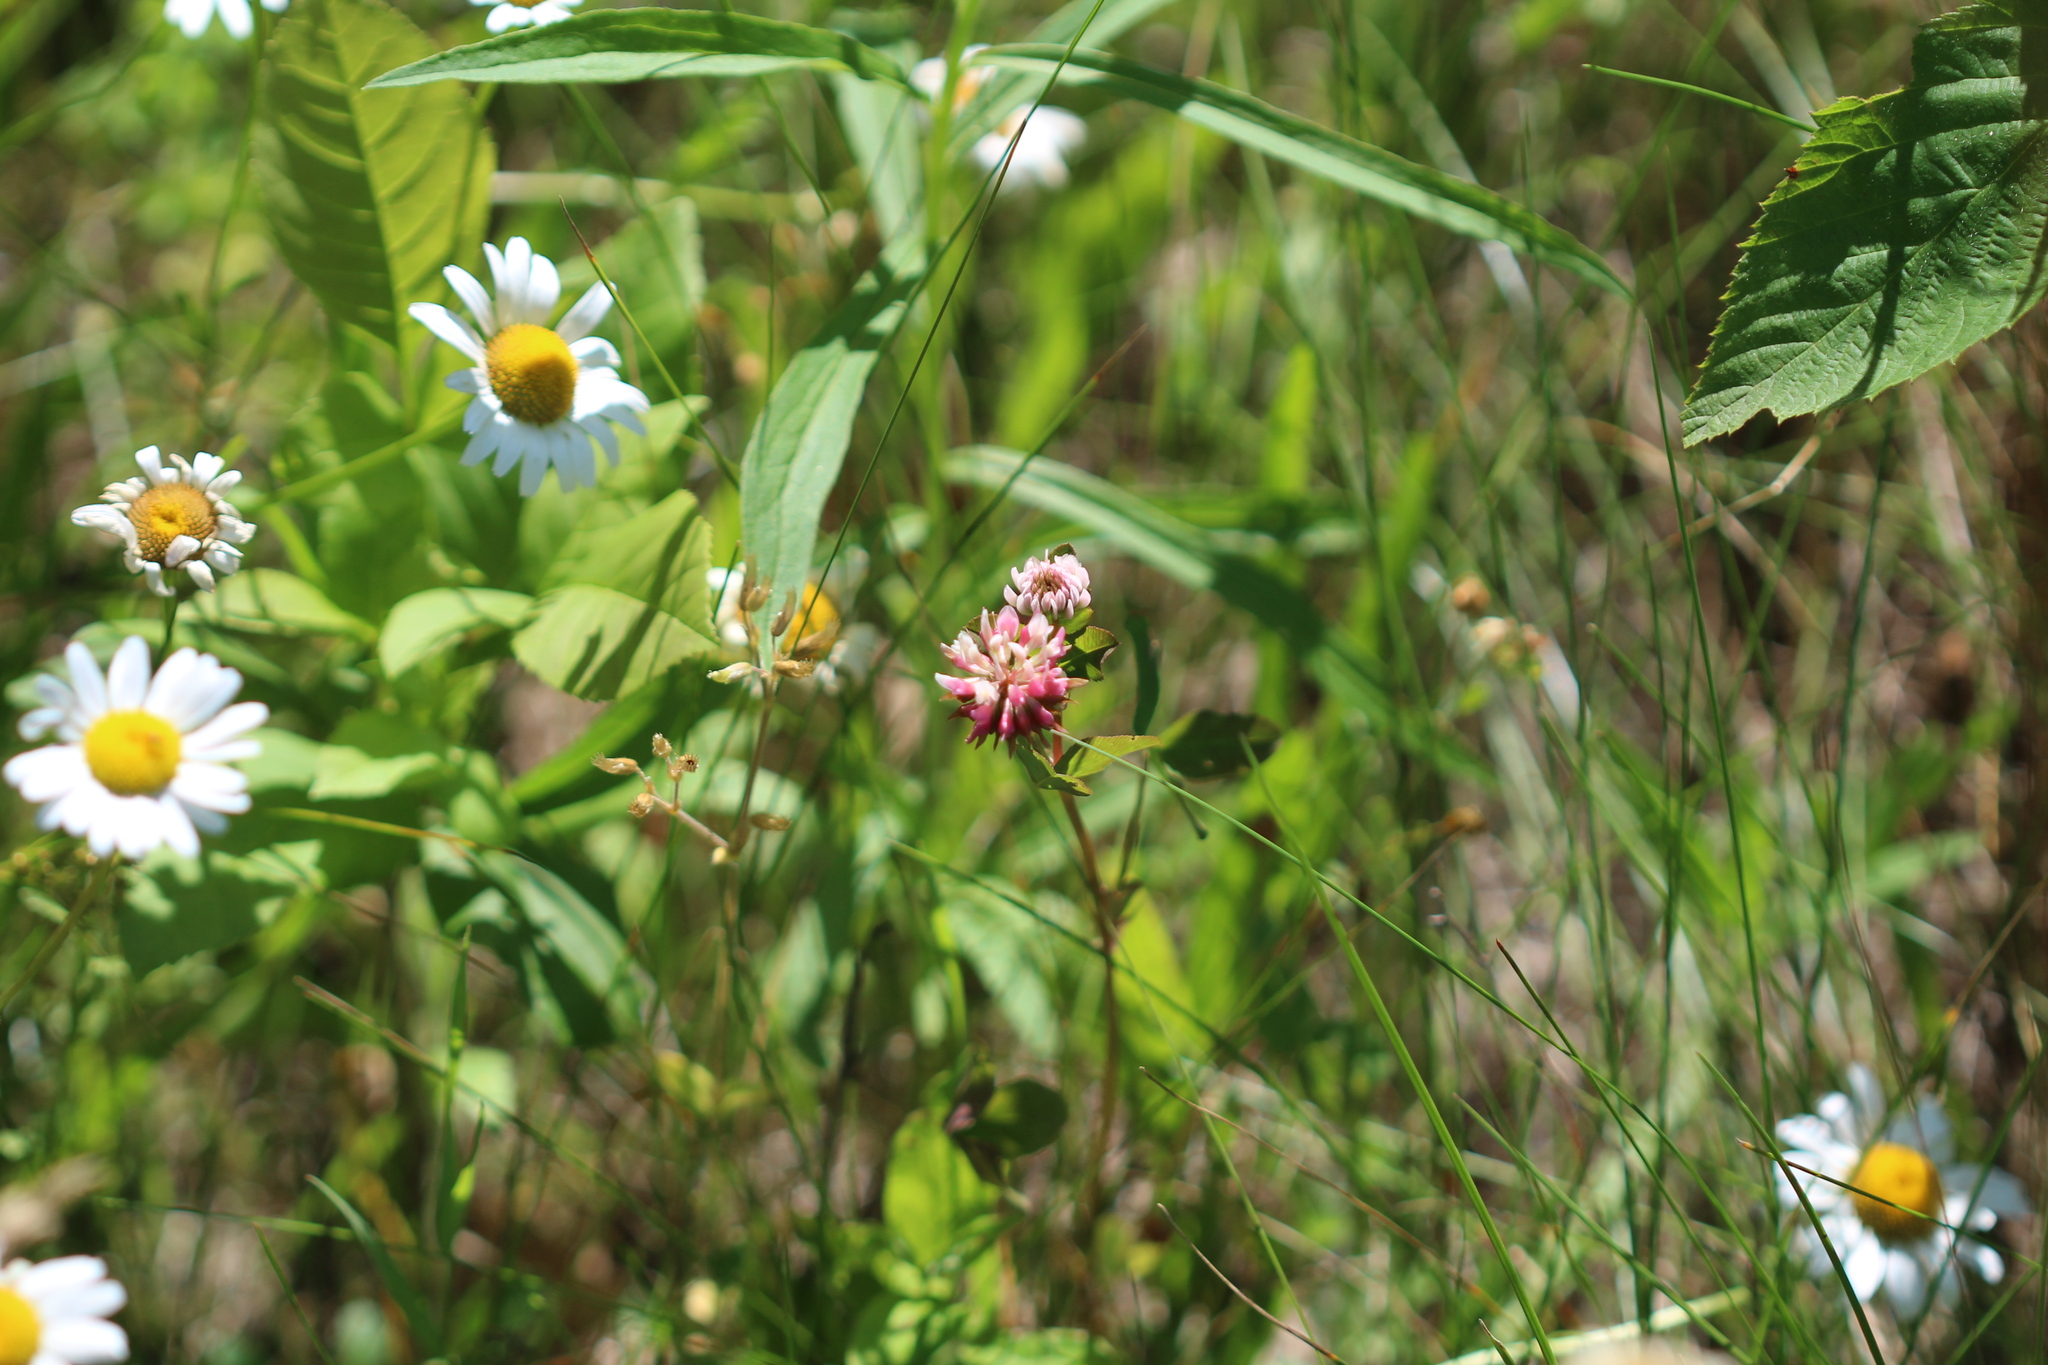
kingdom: Plantae
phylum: Tracheophyta
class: Magnoliopsida
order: Fabales
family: Fabaceae
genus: Trifolium
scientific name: Trifolium hybridum
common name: Alsike clover
